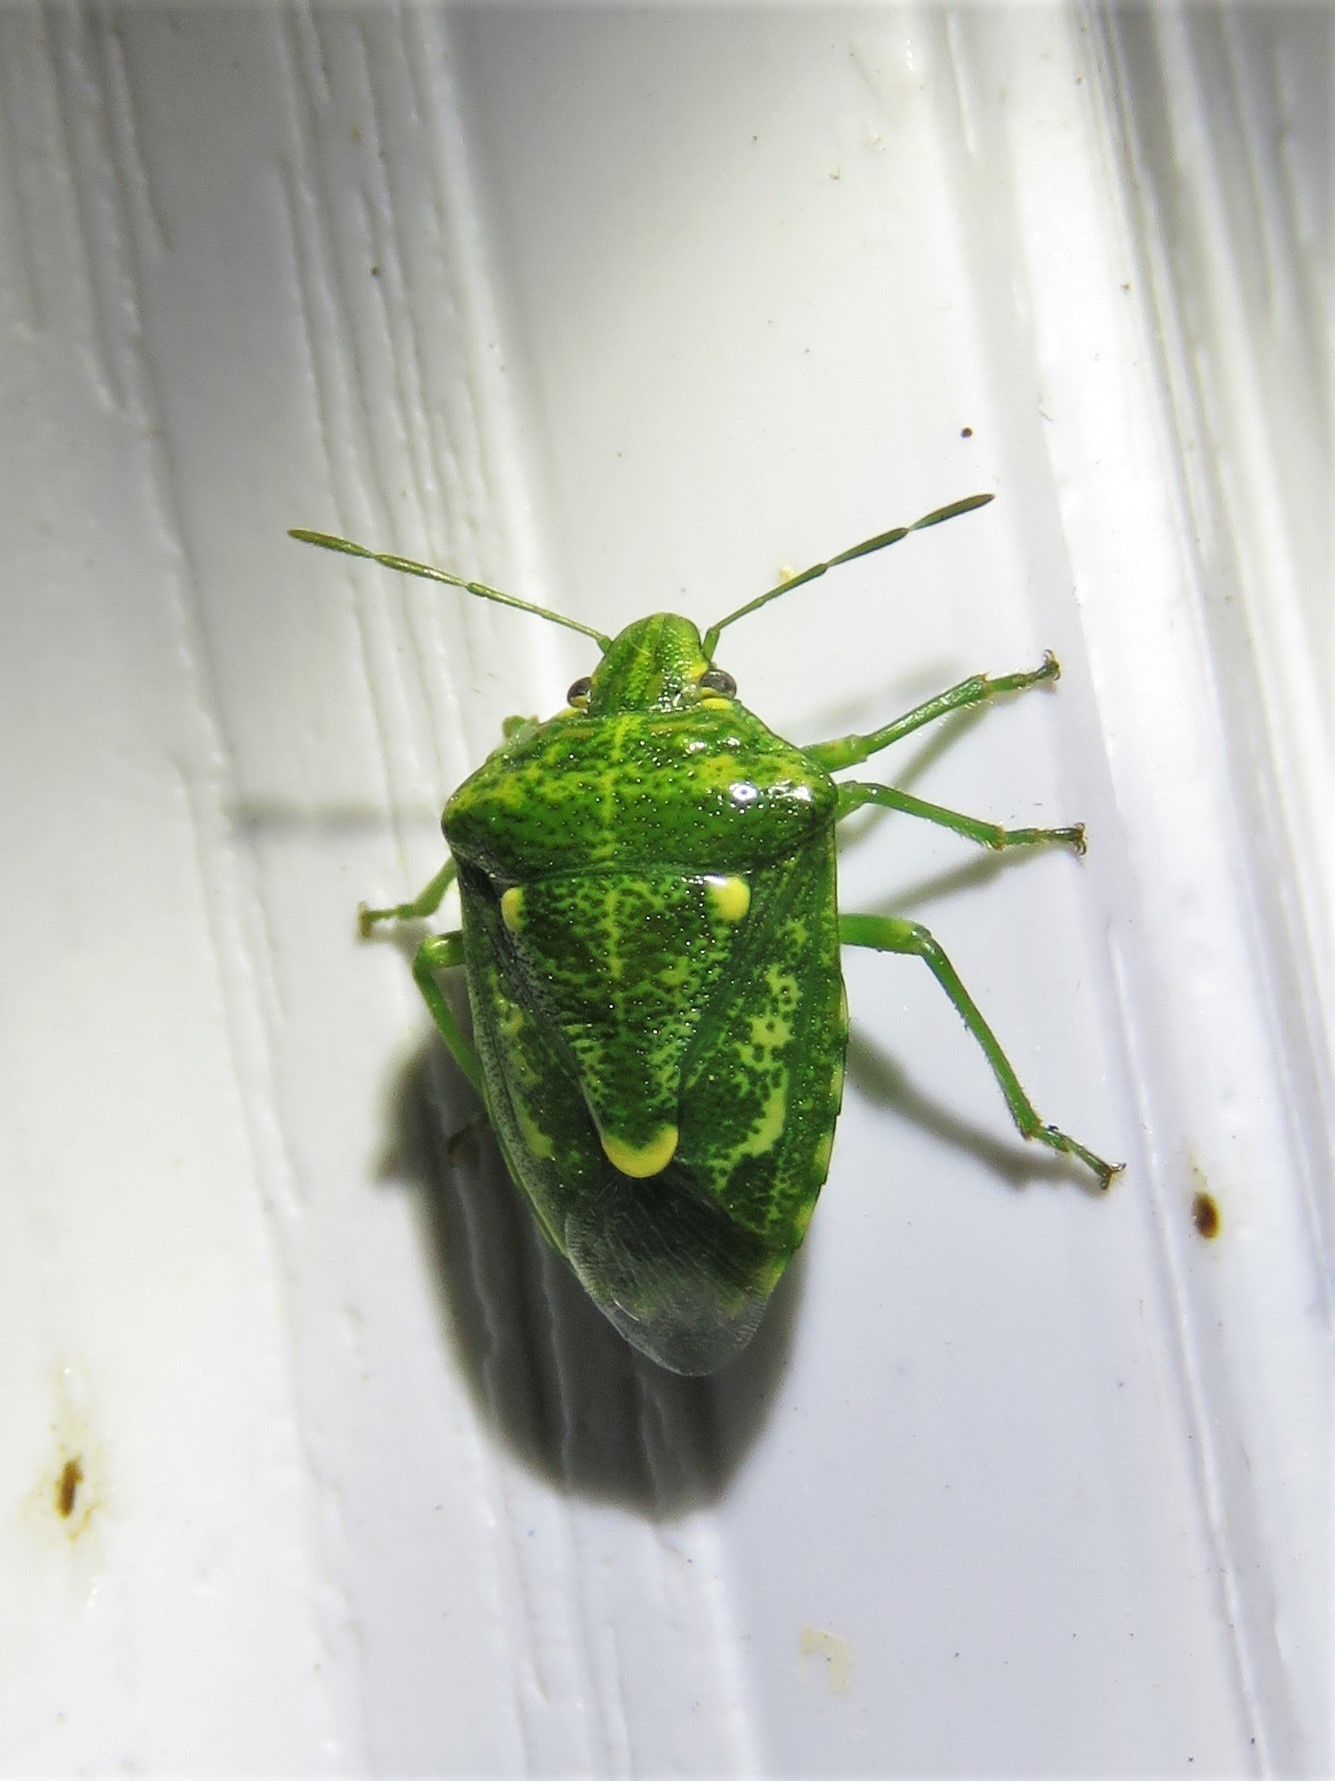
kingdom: Animalia
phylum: Arthropoda
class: Insecta
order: Hemiptera
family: Pentatomidae
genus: Banasa
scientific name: Banasa euchlora
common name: Cedar berry bug
